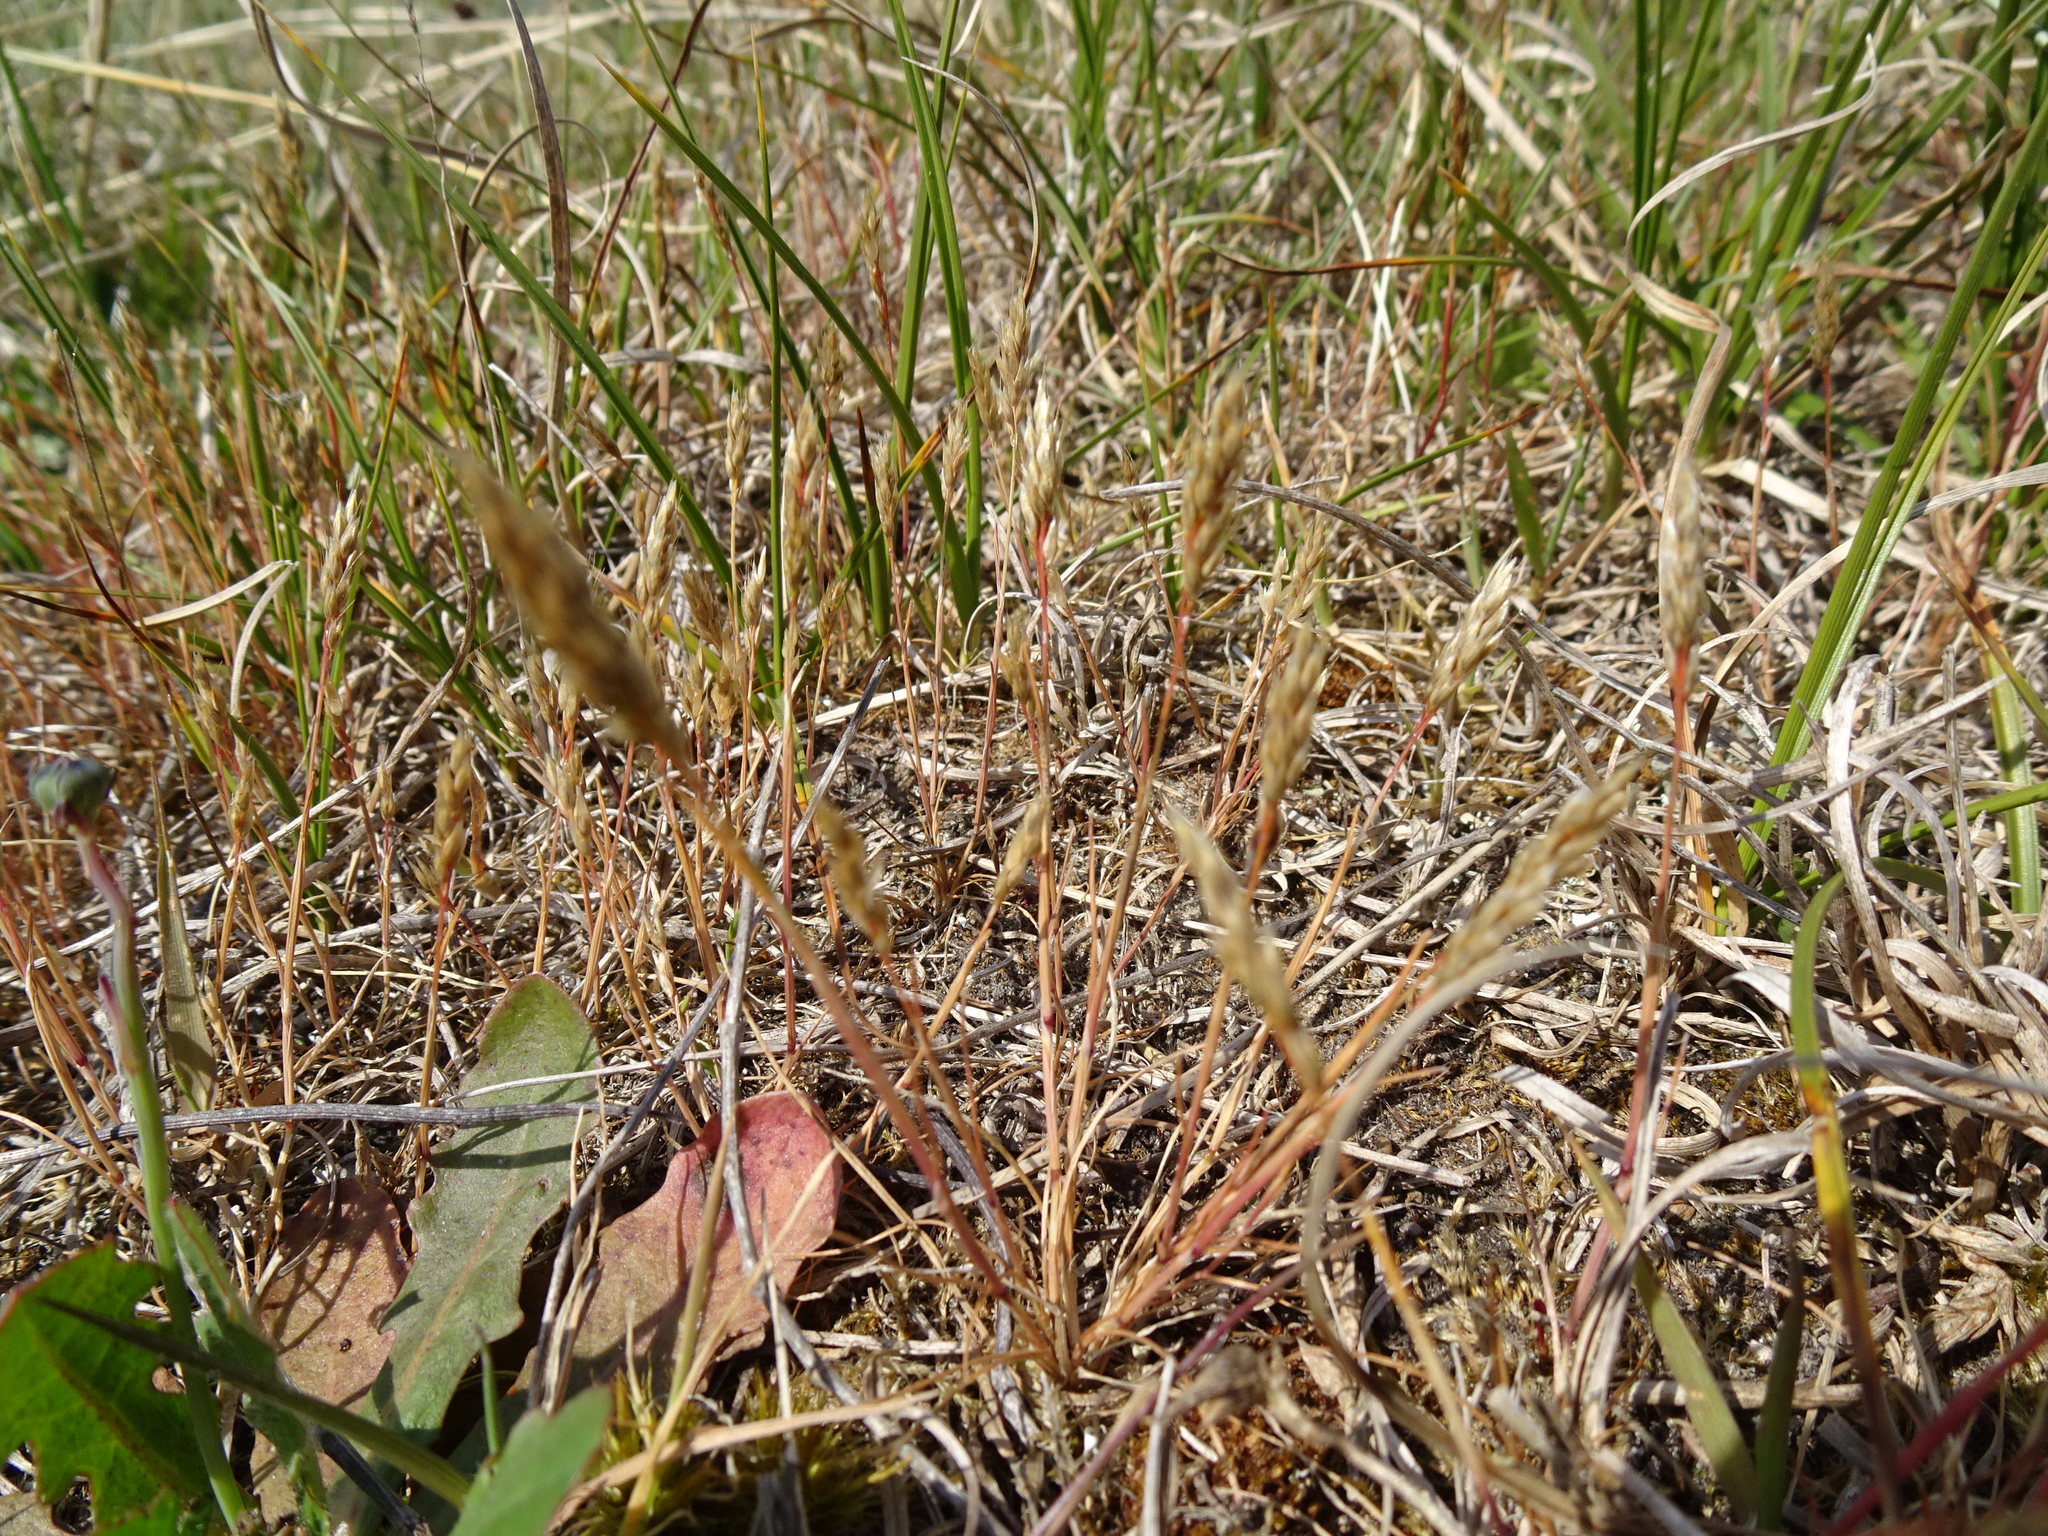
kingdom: Plantae
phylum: Tracheophyta
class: Liliopsida
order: Poales
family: Poaceae
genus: Aira
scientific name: Aira praecox
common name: Early hair-grass
